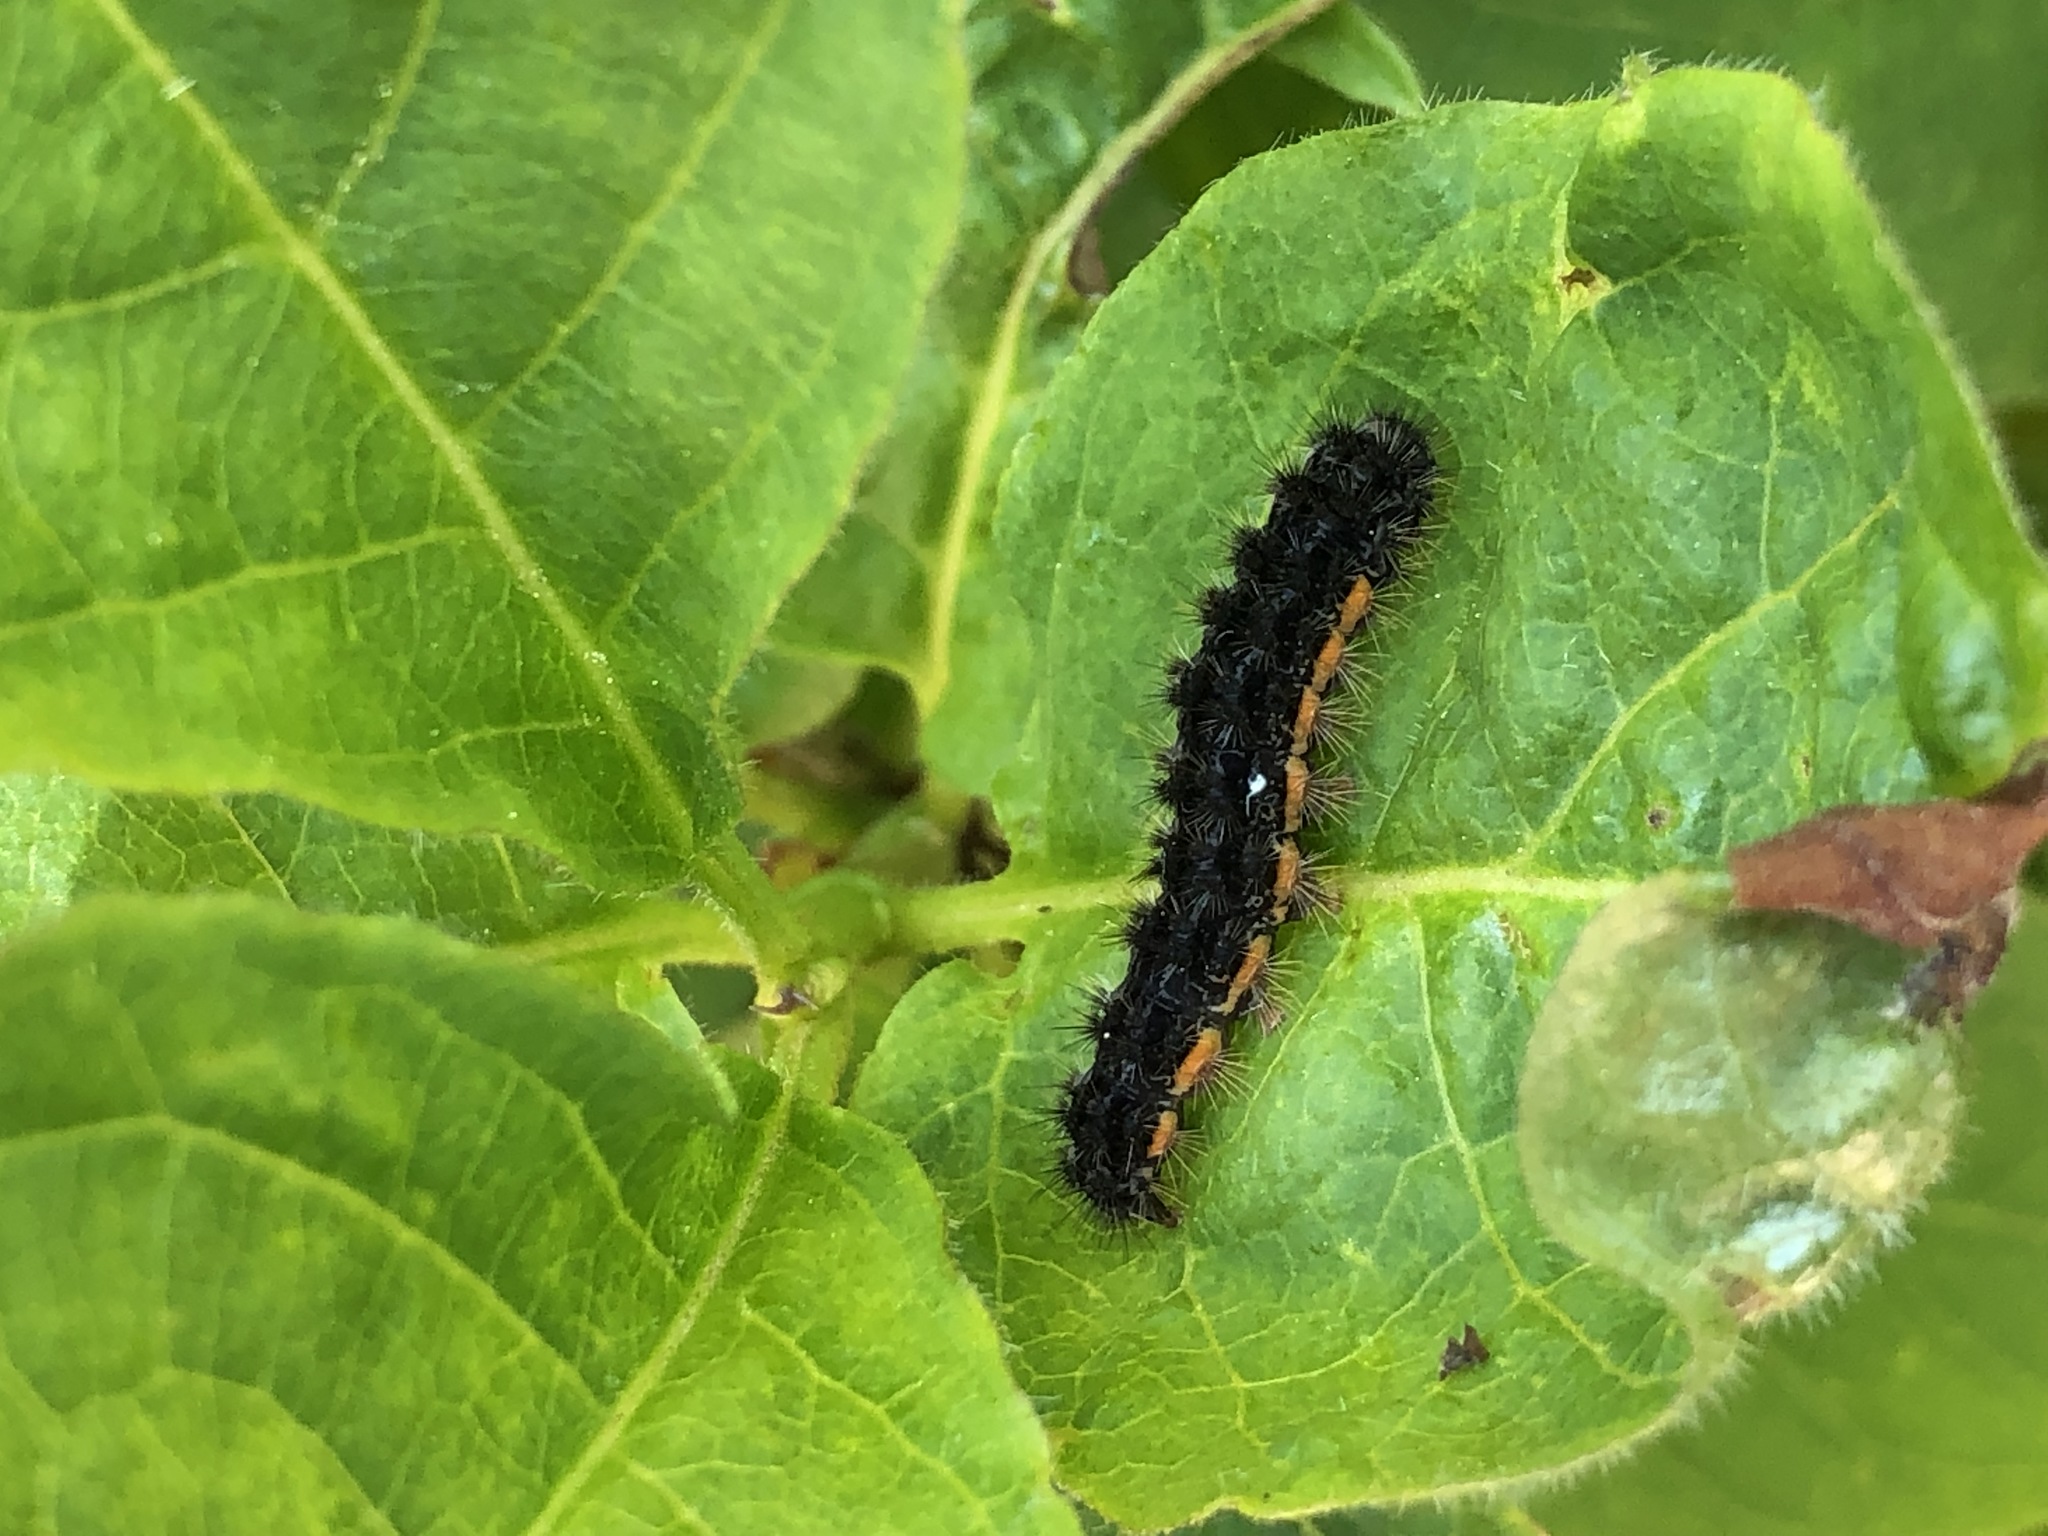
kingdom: Animalia
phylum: Arthropoda
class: Insecta
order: Lepidoptera
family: Erebidae
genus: Nyea
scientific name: Nyea lurideola
